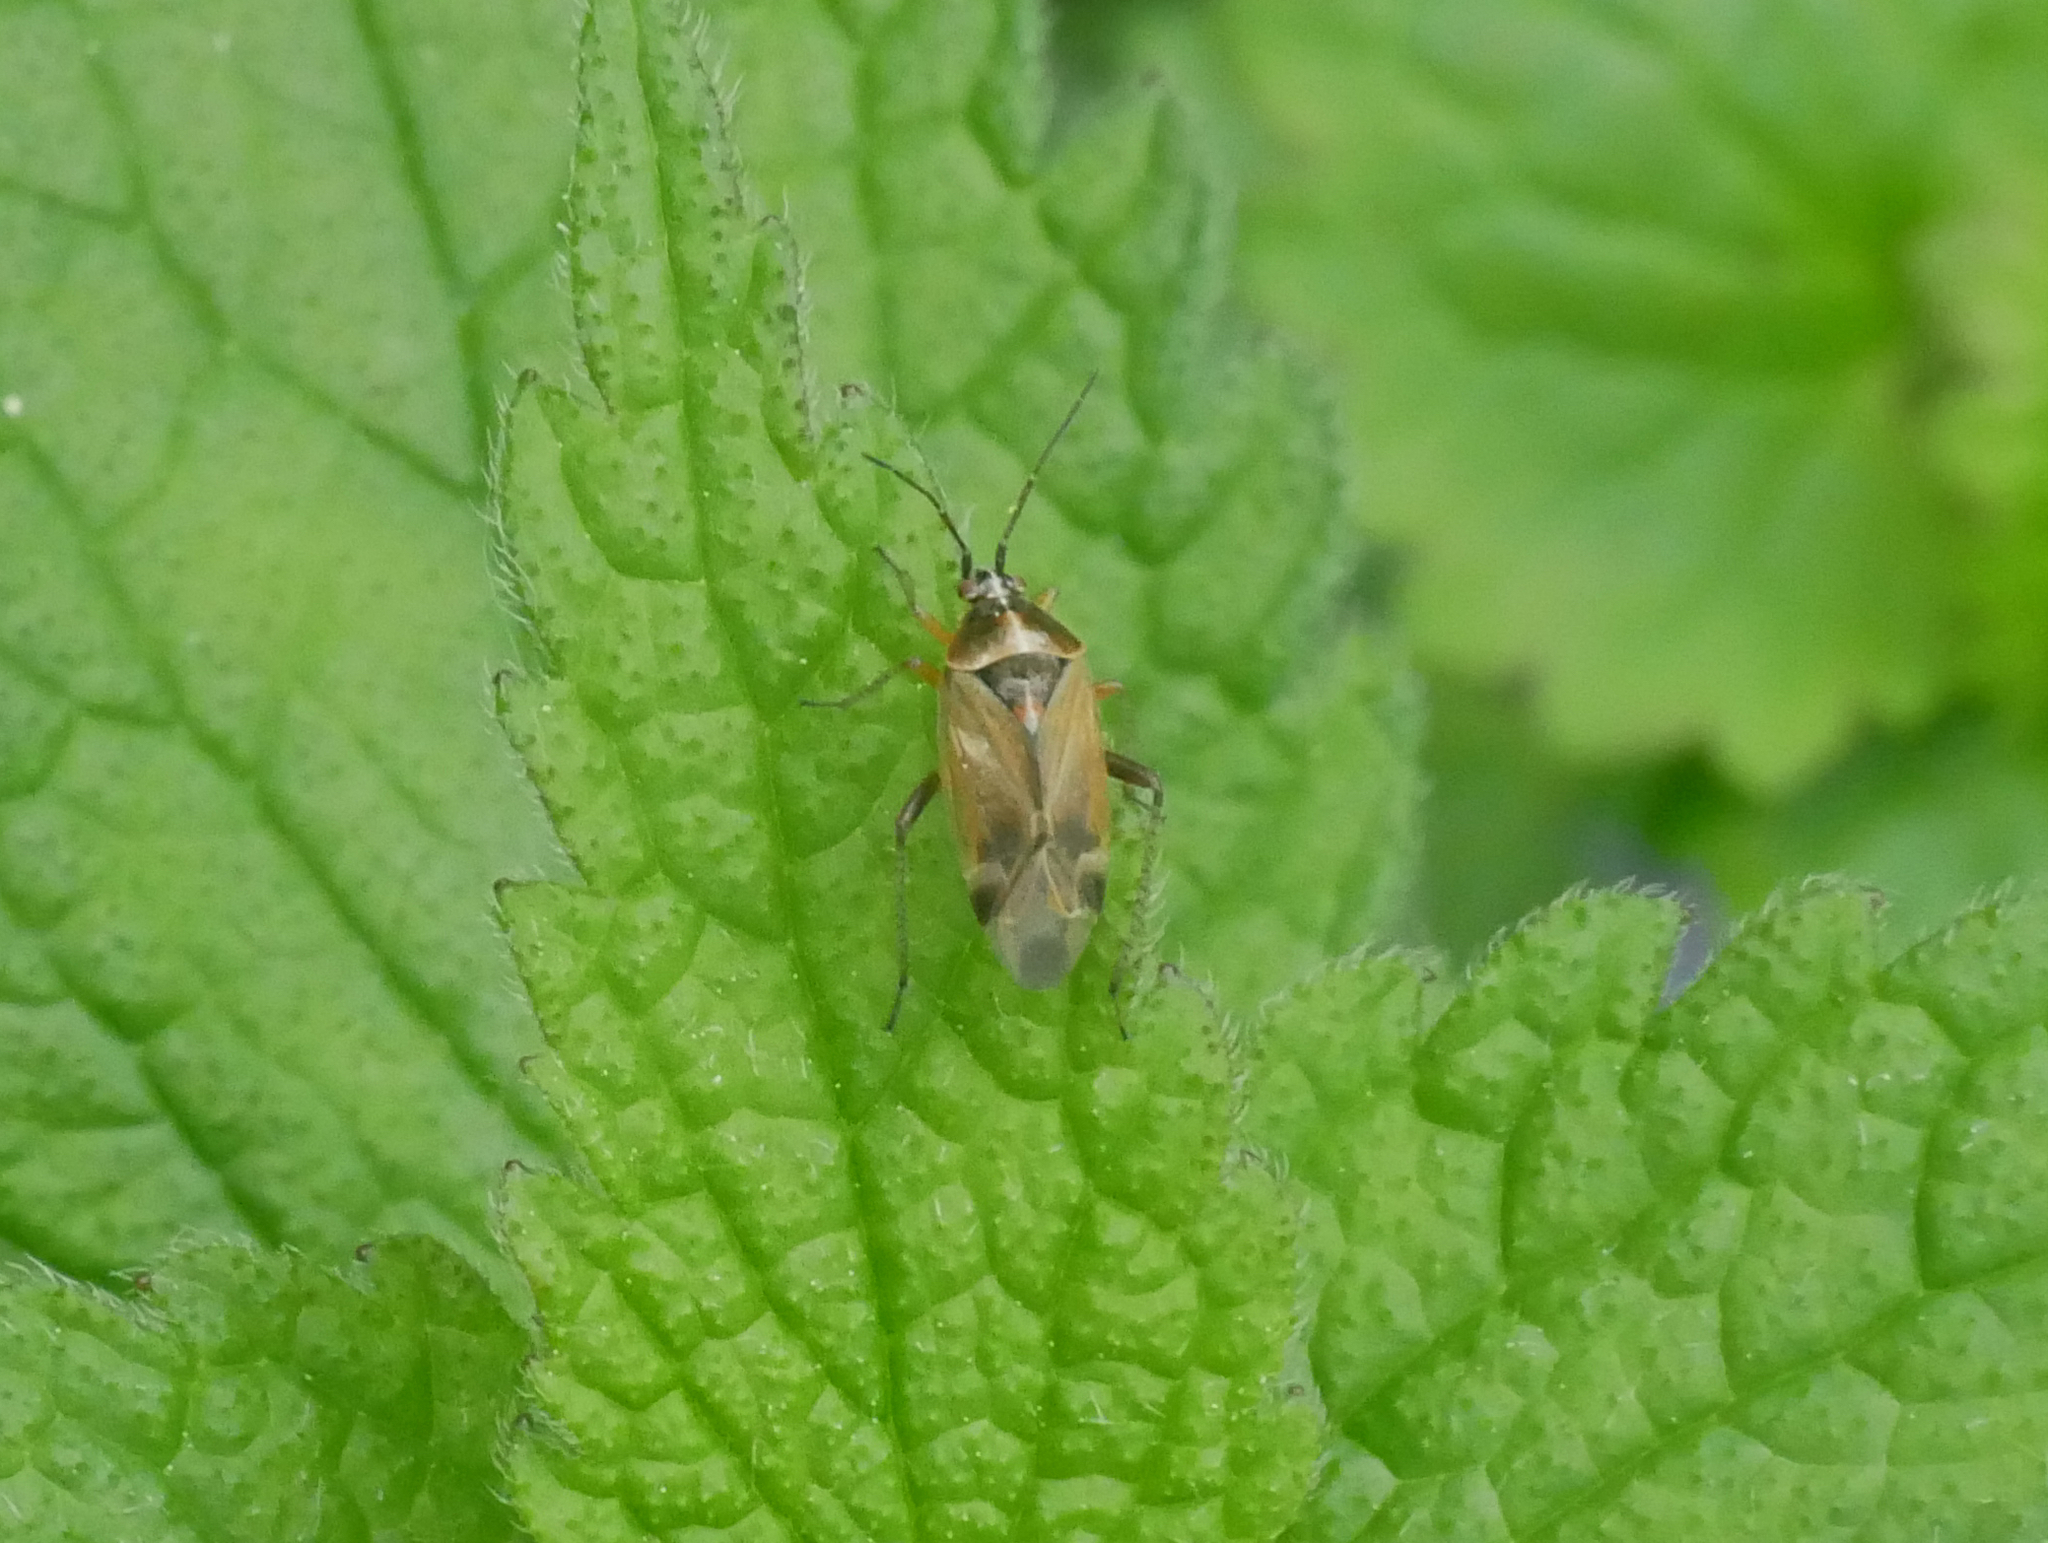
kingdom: Animalia
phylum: Arthropoda
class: Insecta
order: Hemiptera
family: Miridae
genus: Harpocera
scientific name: Harpocera thoracica
